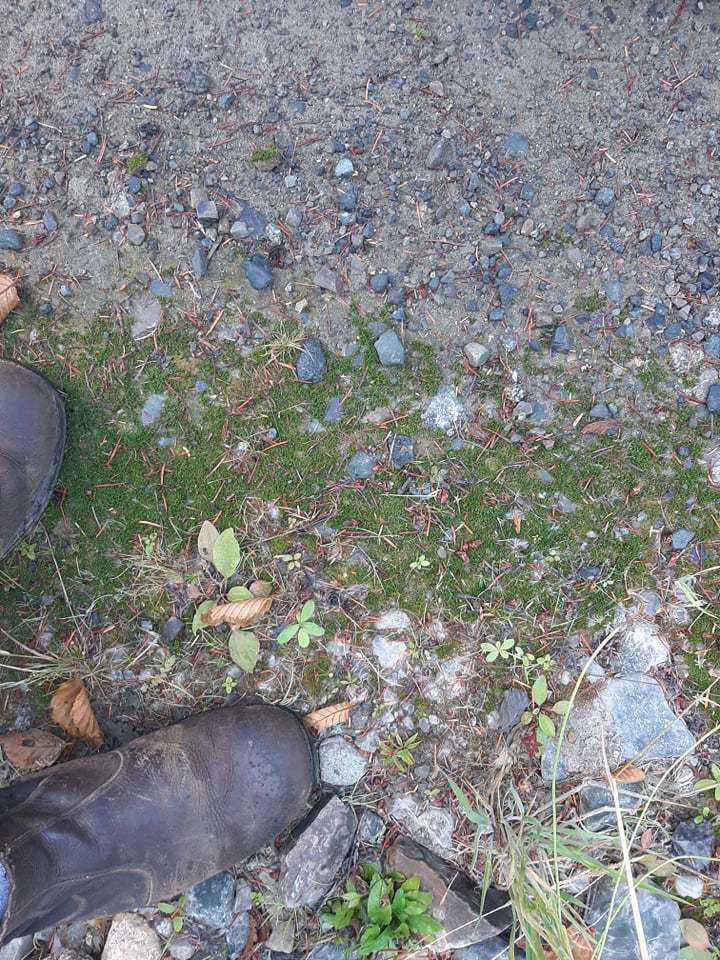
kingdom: Plantae
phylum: Marchantiophyta
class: Marchantiopsida
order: Blasiales
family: Blasiaceae
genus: Blasia
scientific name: Blasia pusilla
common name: Common kettlewort
